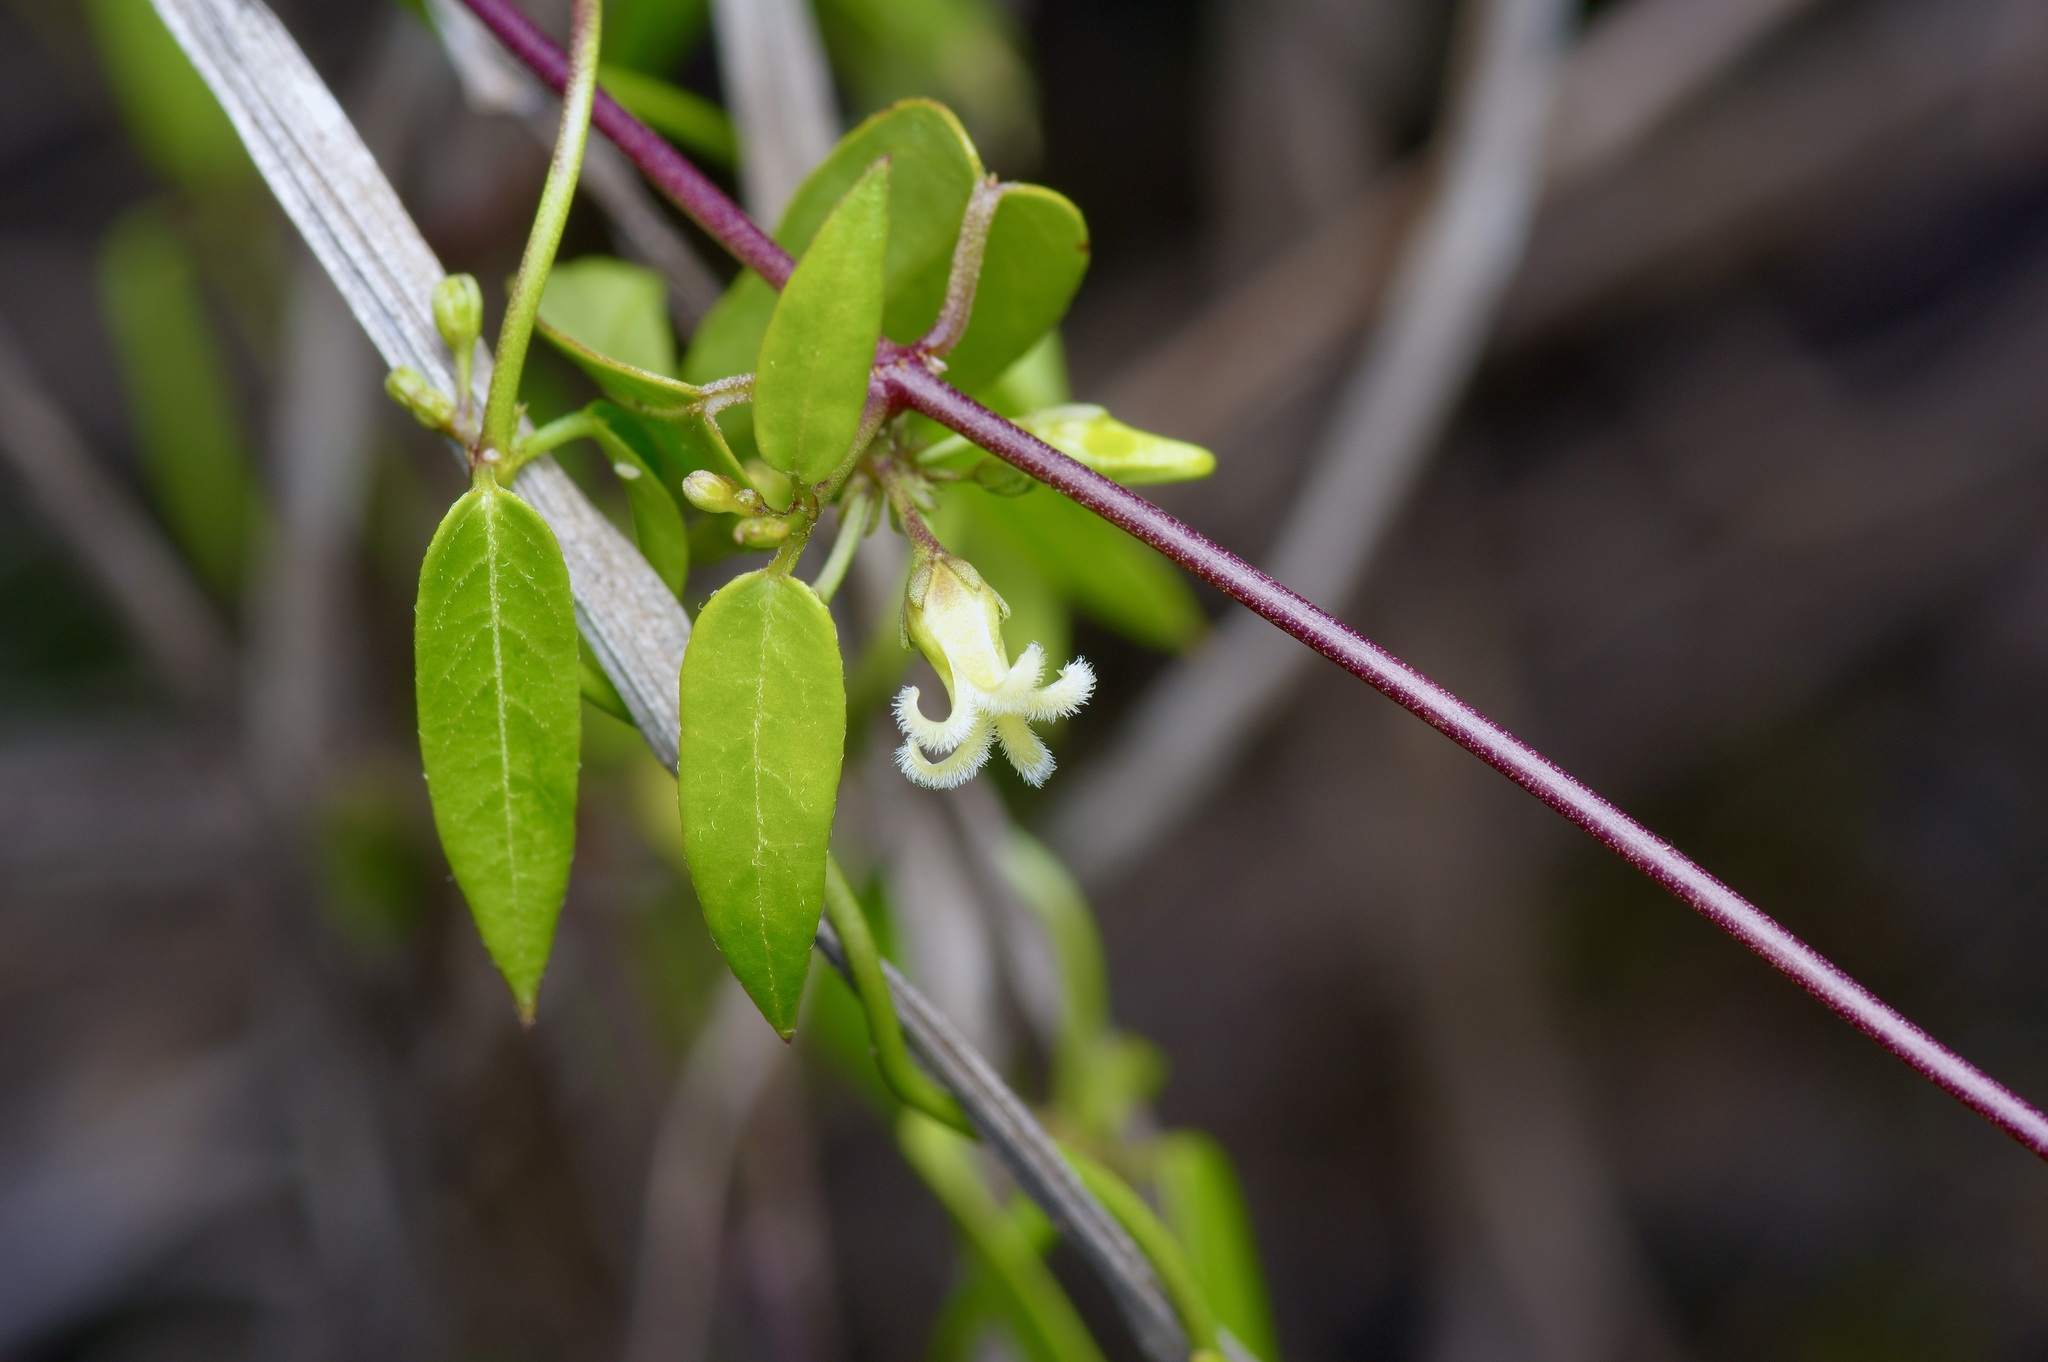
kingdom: Plantae
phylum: Tracheophyta
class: Magnoliopsida
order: Gentianales
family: Apocynaceae
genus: Metastelma
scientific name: Metastelma barbigerum
